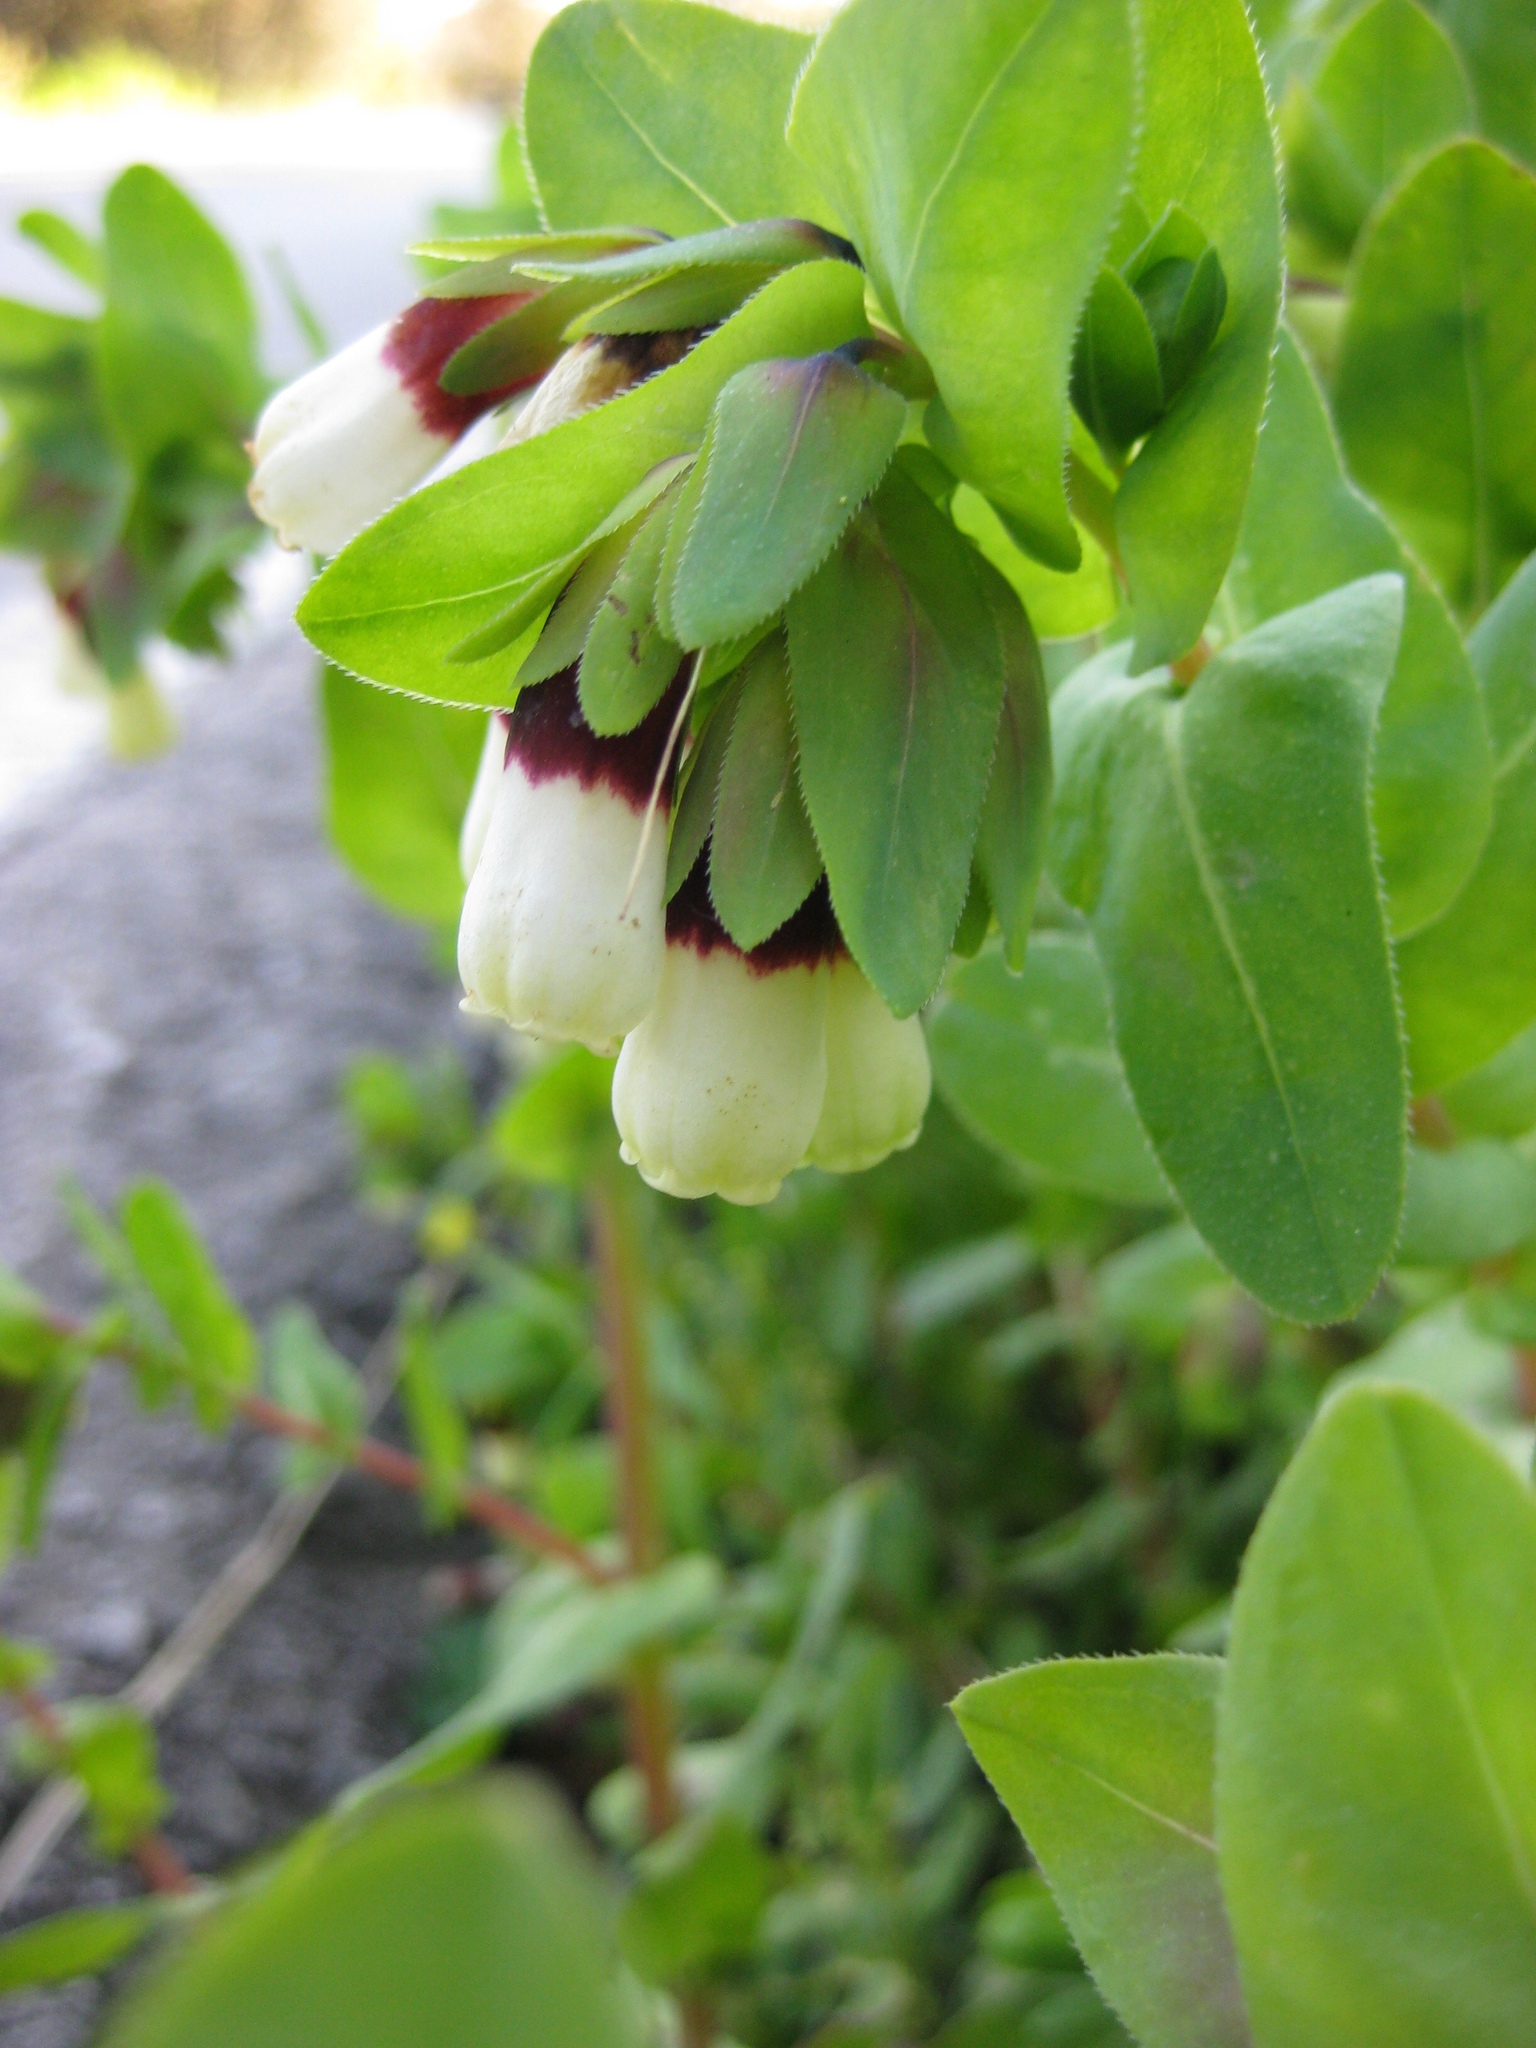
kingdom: Plantae
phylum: Tracheophyta
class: Magnoliopsida
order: Boraginales
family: Boraginaceae
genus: Cerinthe
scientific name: Cerinthe major
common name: Greater honeywort
